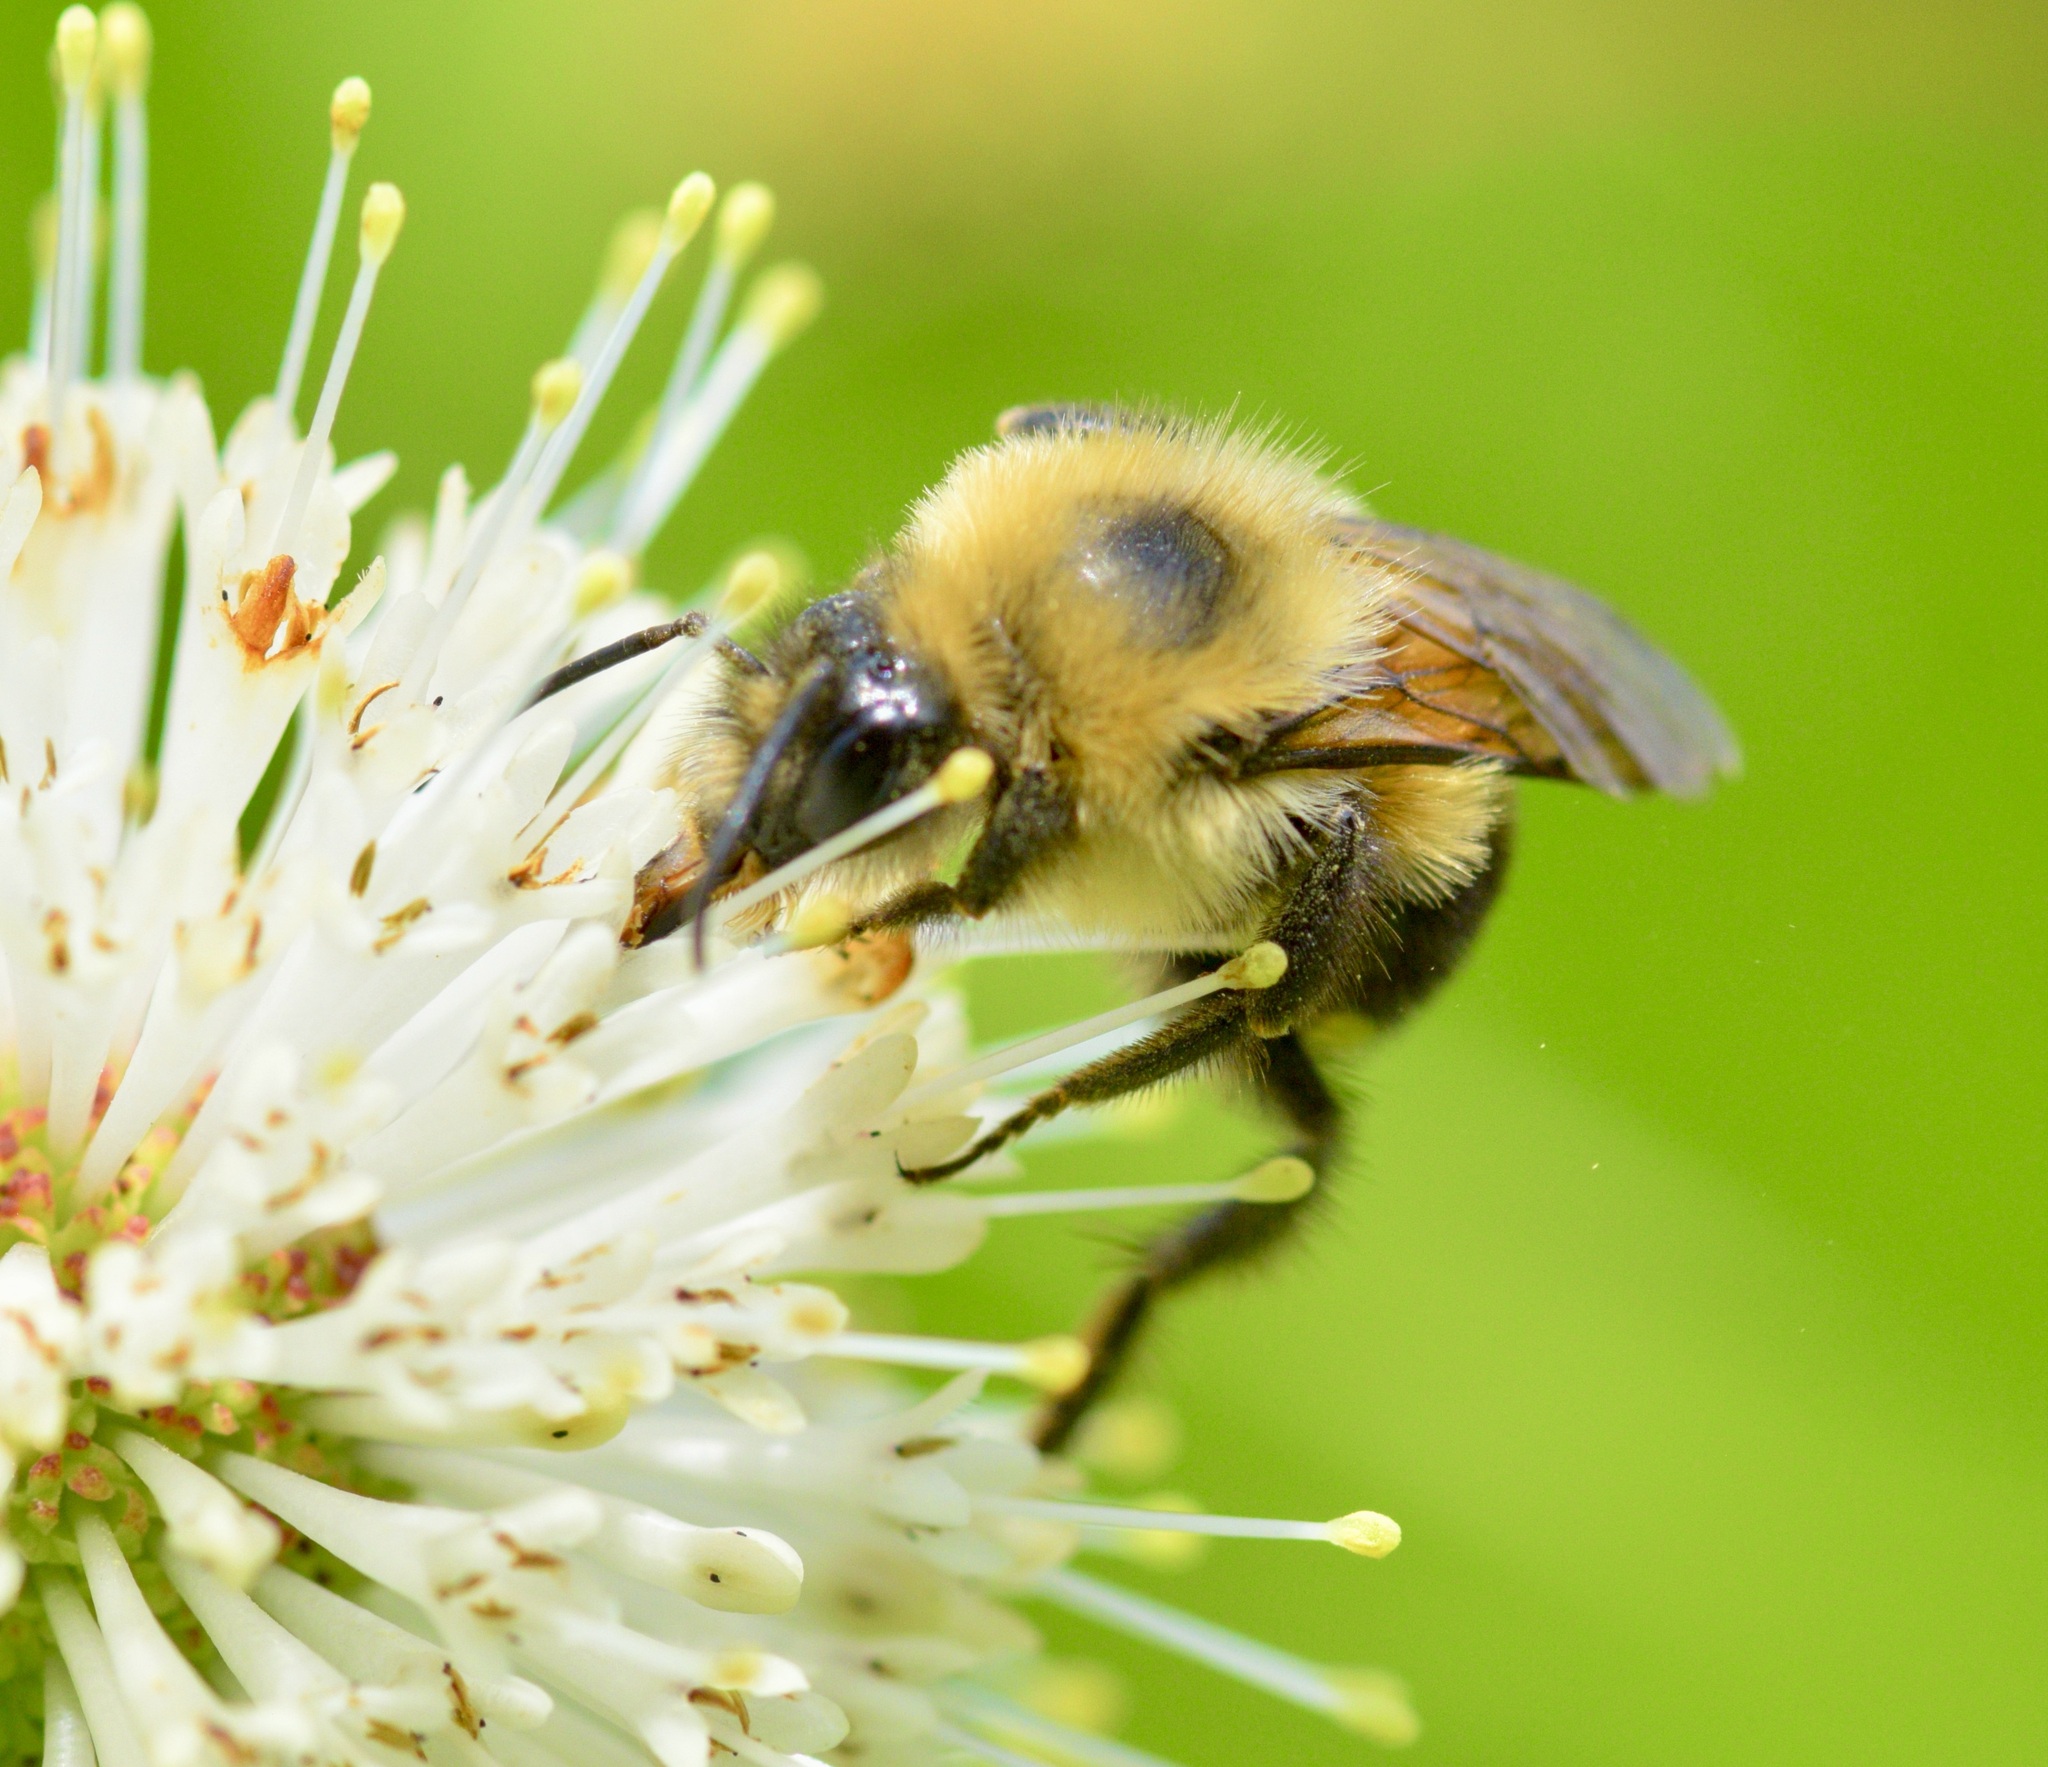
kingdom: Animalia
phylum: Arthropoda
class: Insecta
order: Hymenoptera
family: Apidae
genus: Bombus
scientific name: Bombus bimaculatus
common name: Two-spotted bumble bee
